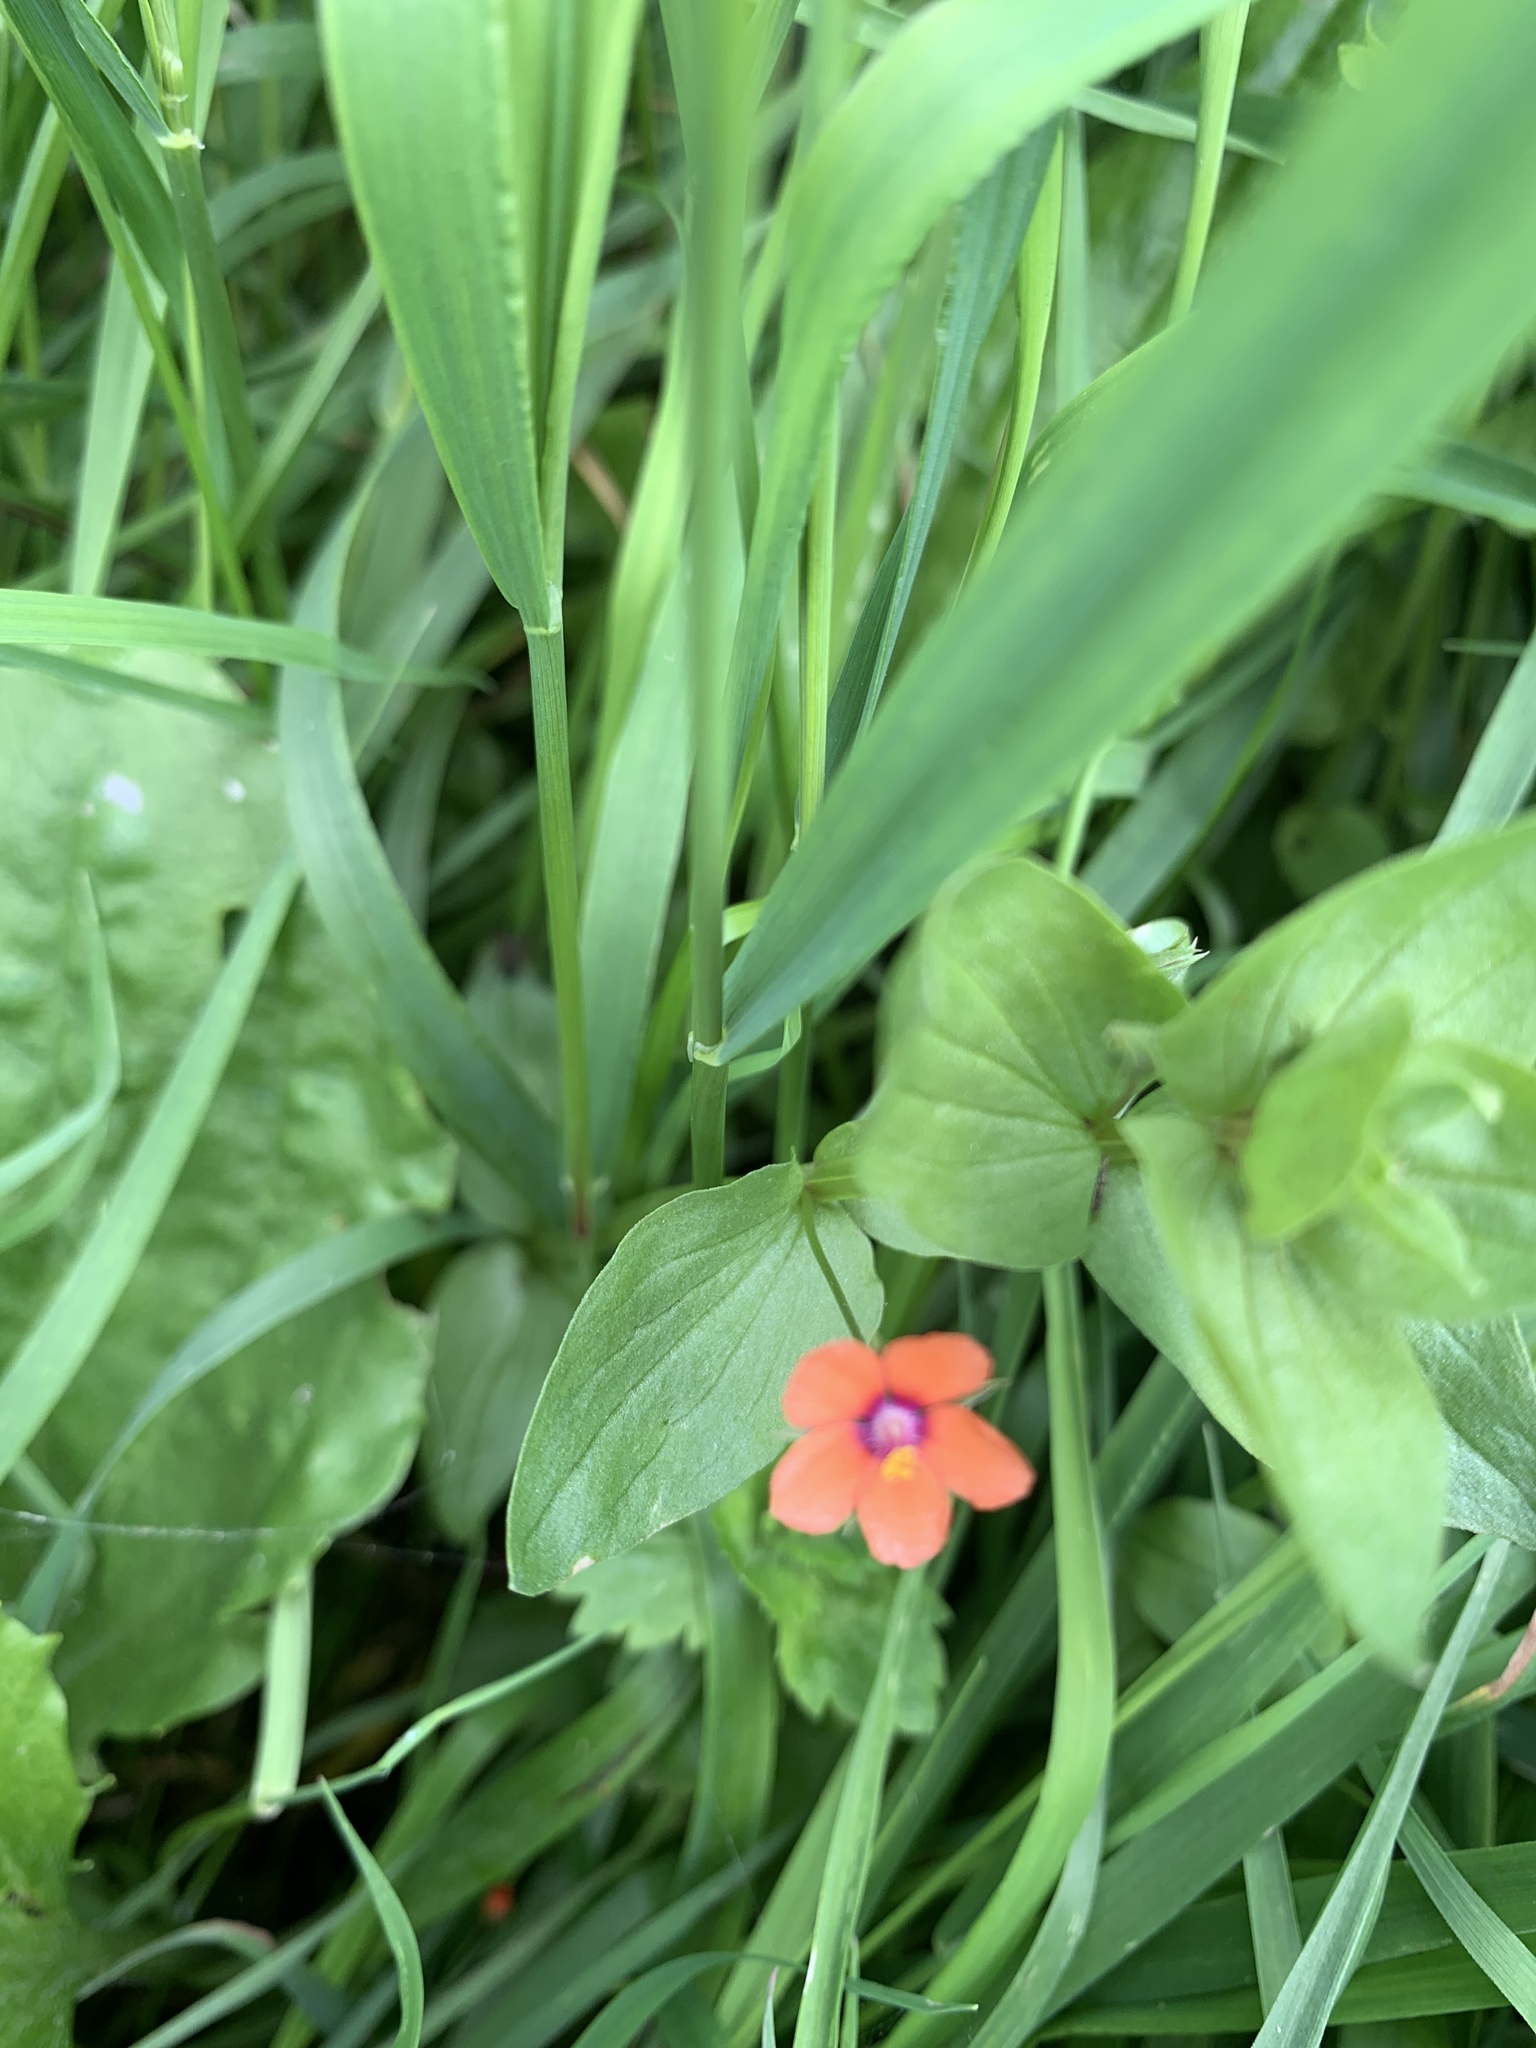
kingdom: Plantae
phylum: Tracheophyta
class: Magnoliopsida
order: Ericales
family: Primulaceae
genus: Lysimachia
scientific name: Lysimachia arvensis
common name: Scarlet pimpernel
